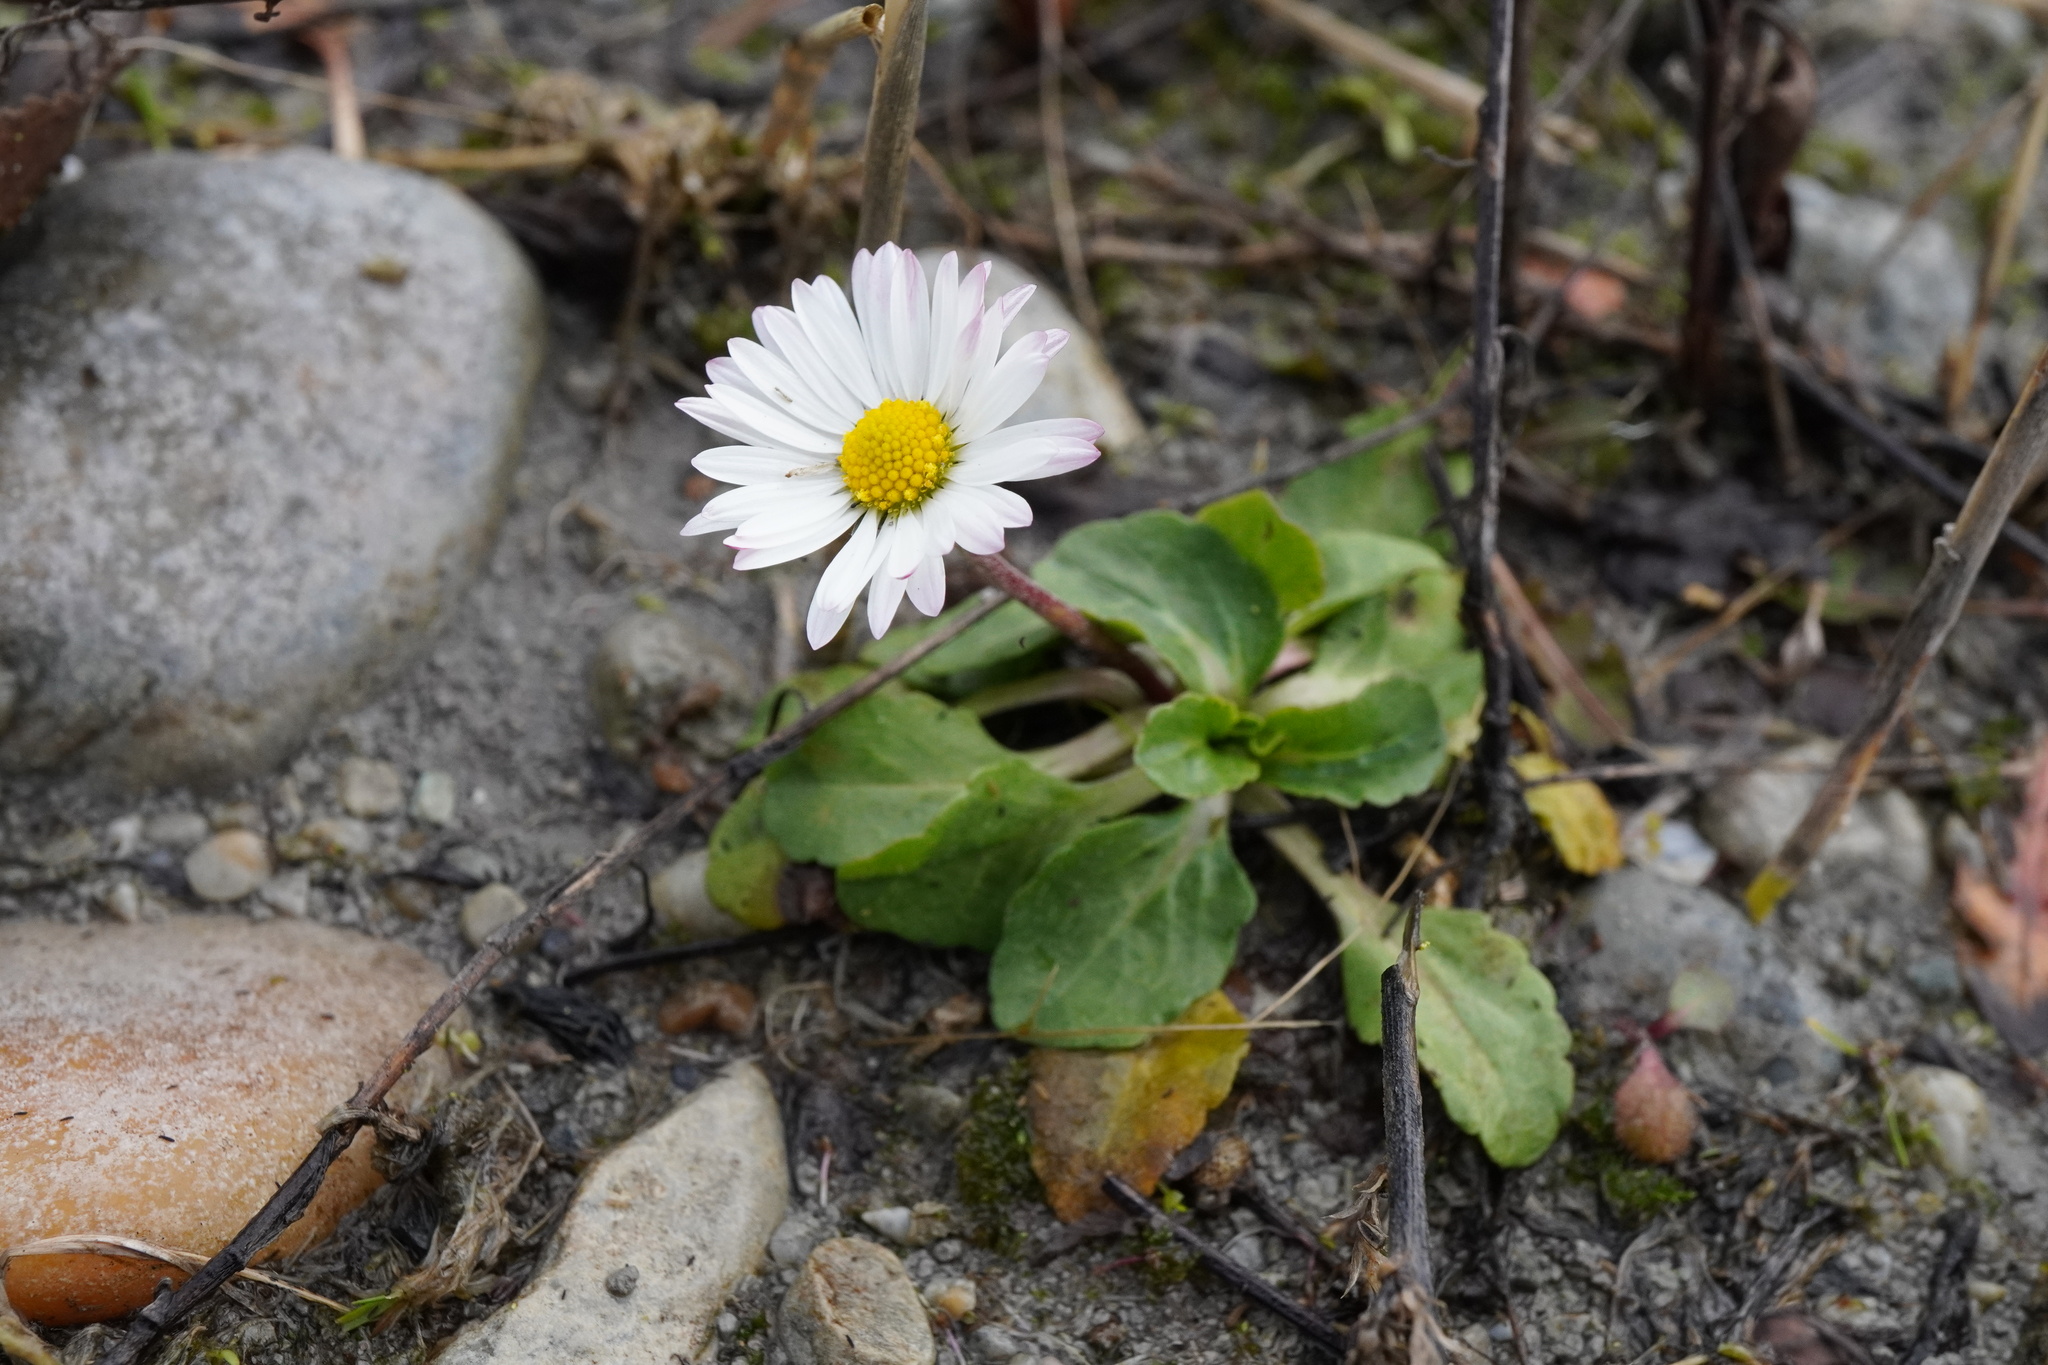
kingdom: Plantae
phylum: Tracheophyta
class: Magnoliopsida
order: Asterales
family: Asteraceae
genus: Bellis
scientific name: Bellis perennis
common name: Lawndaisy
